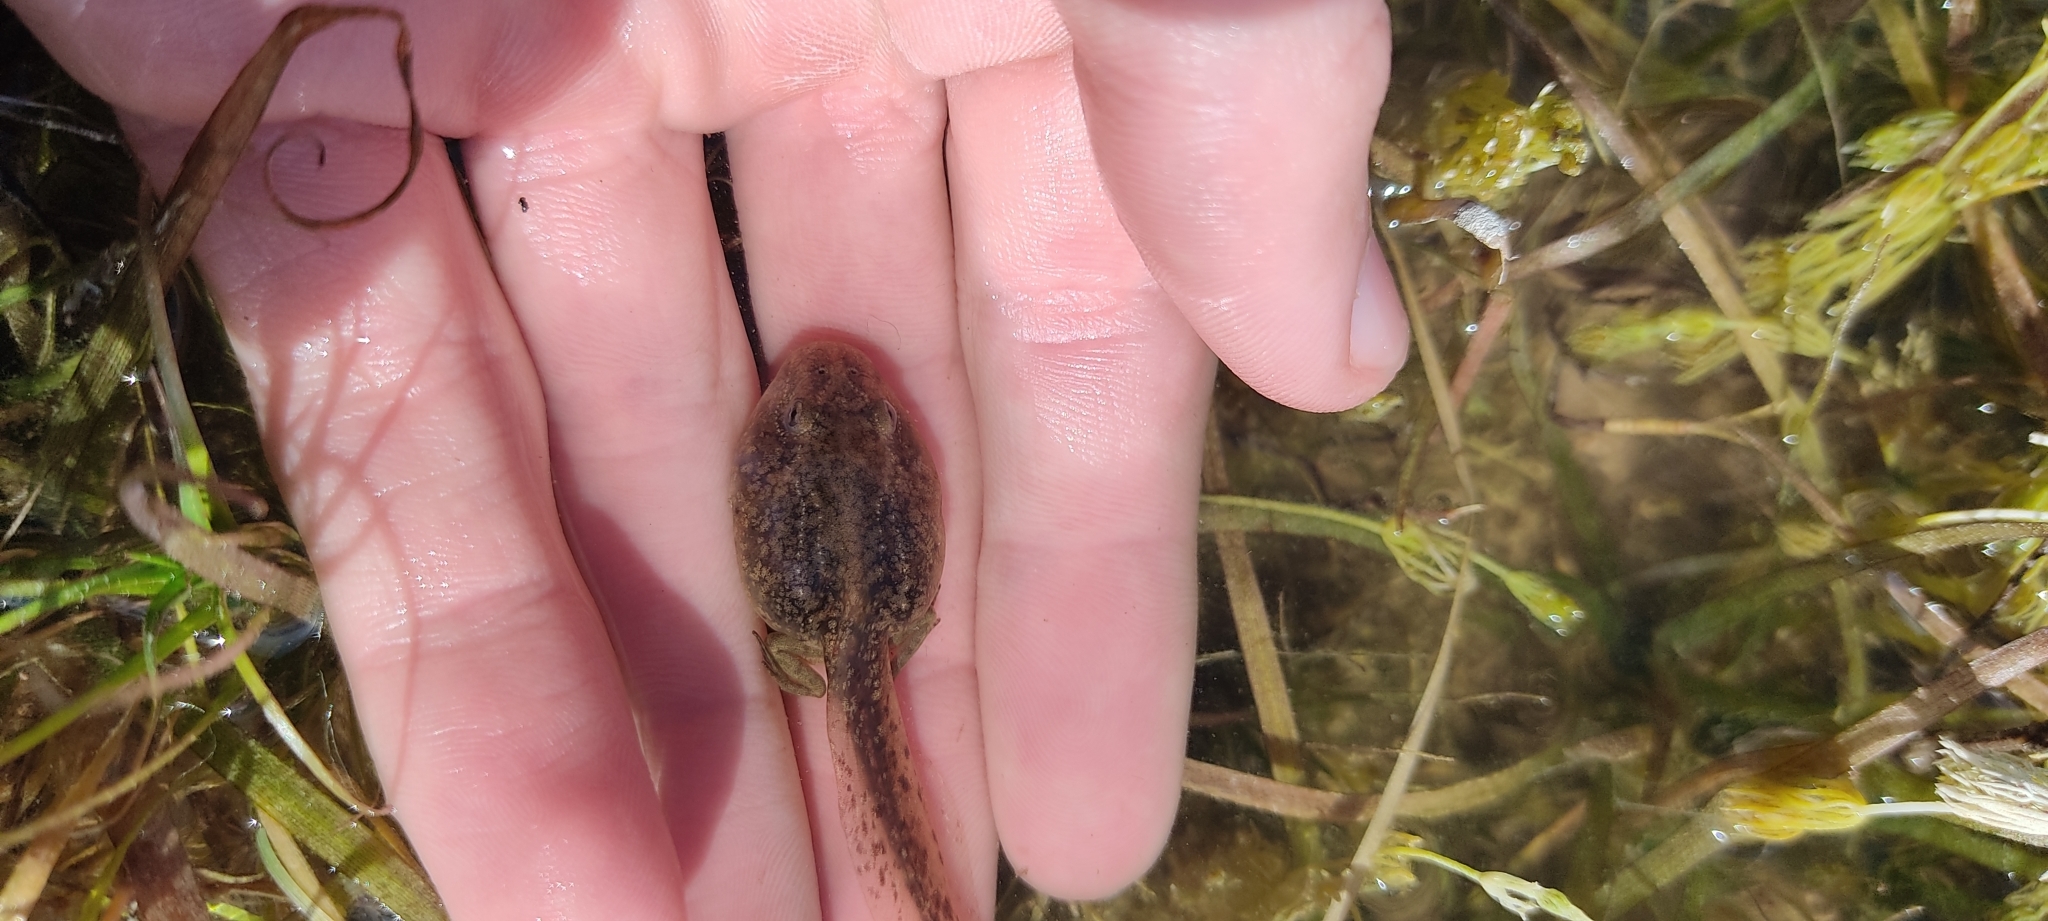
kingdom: Animalia
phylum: Chordata
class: Amphibia
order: Anura
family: Pelodytidae
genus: Pelodytes
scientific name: Pelodytes punctatus
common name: Parsley frog
